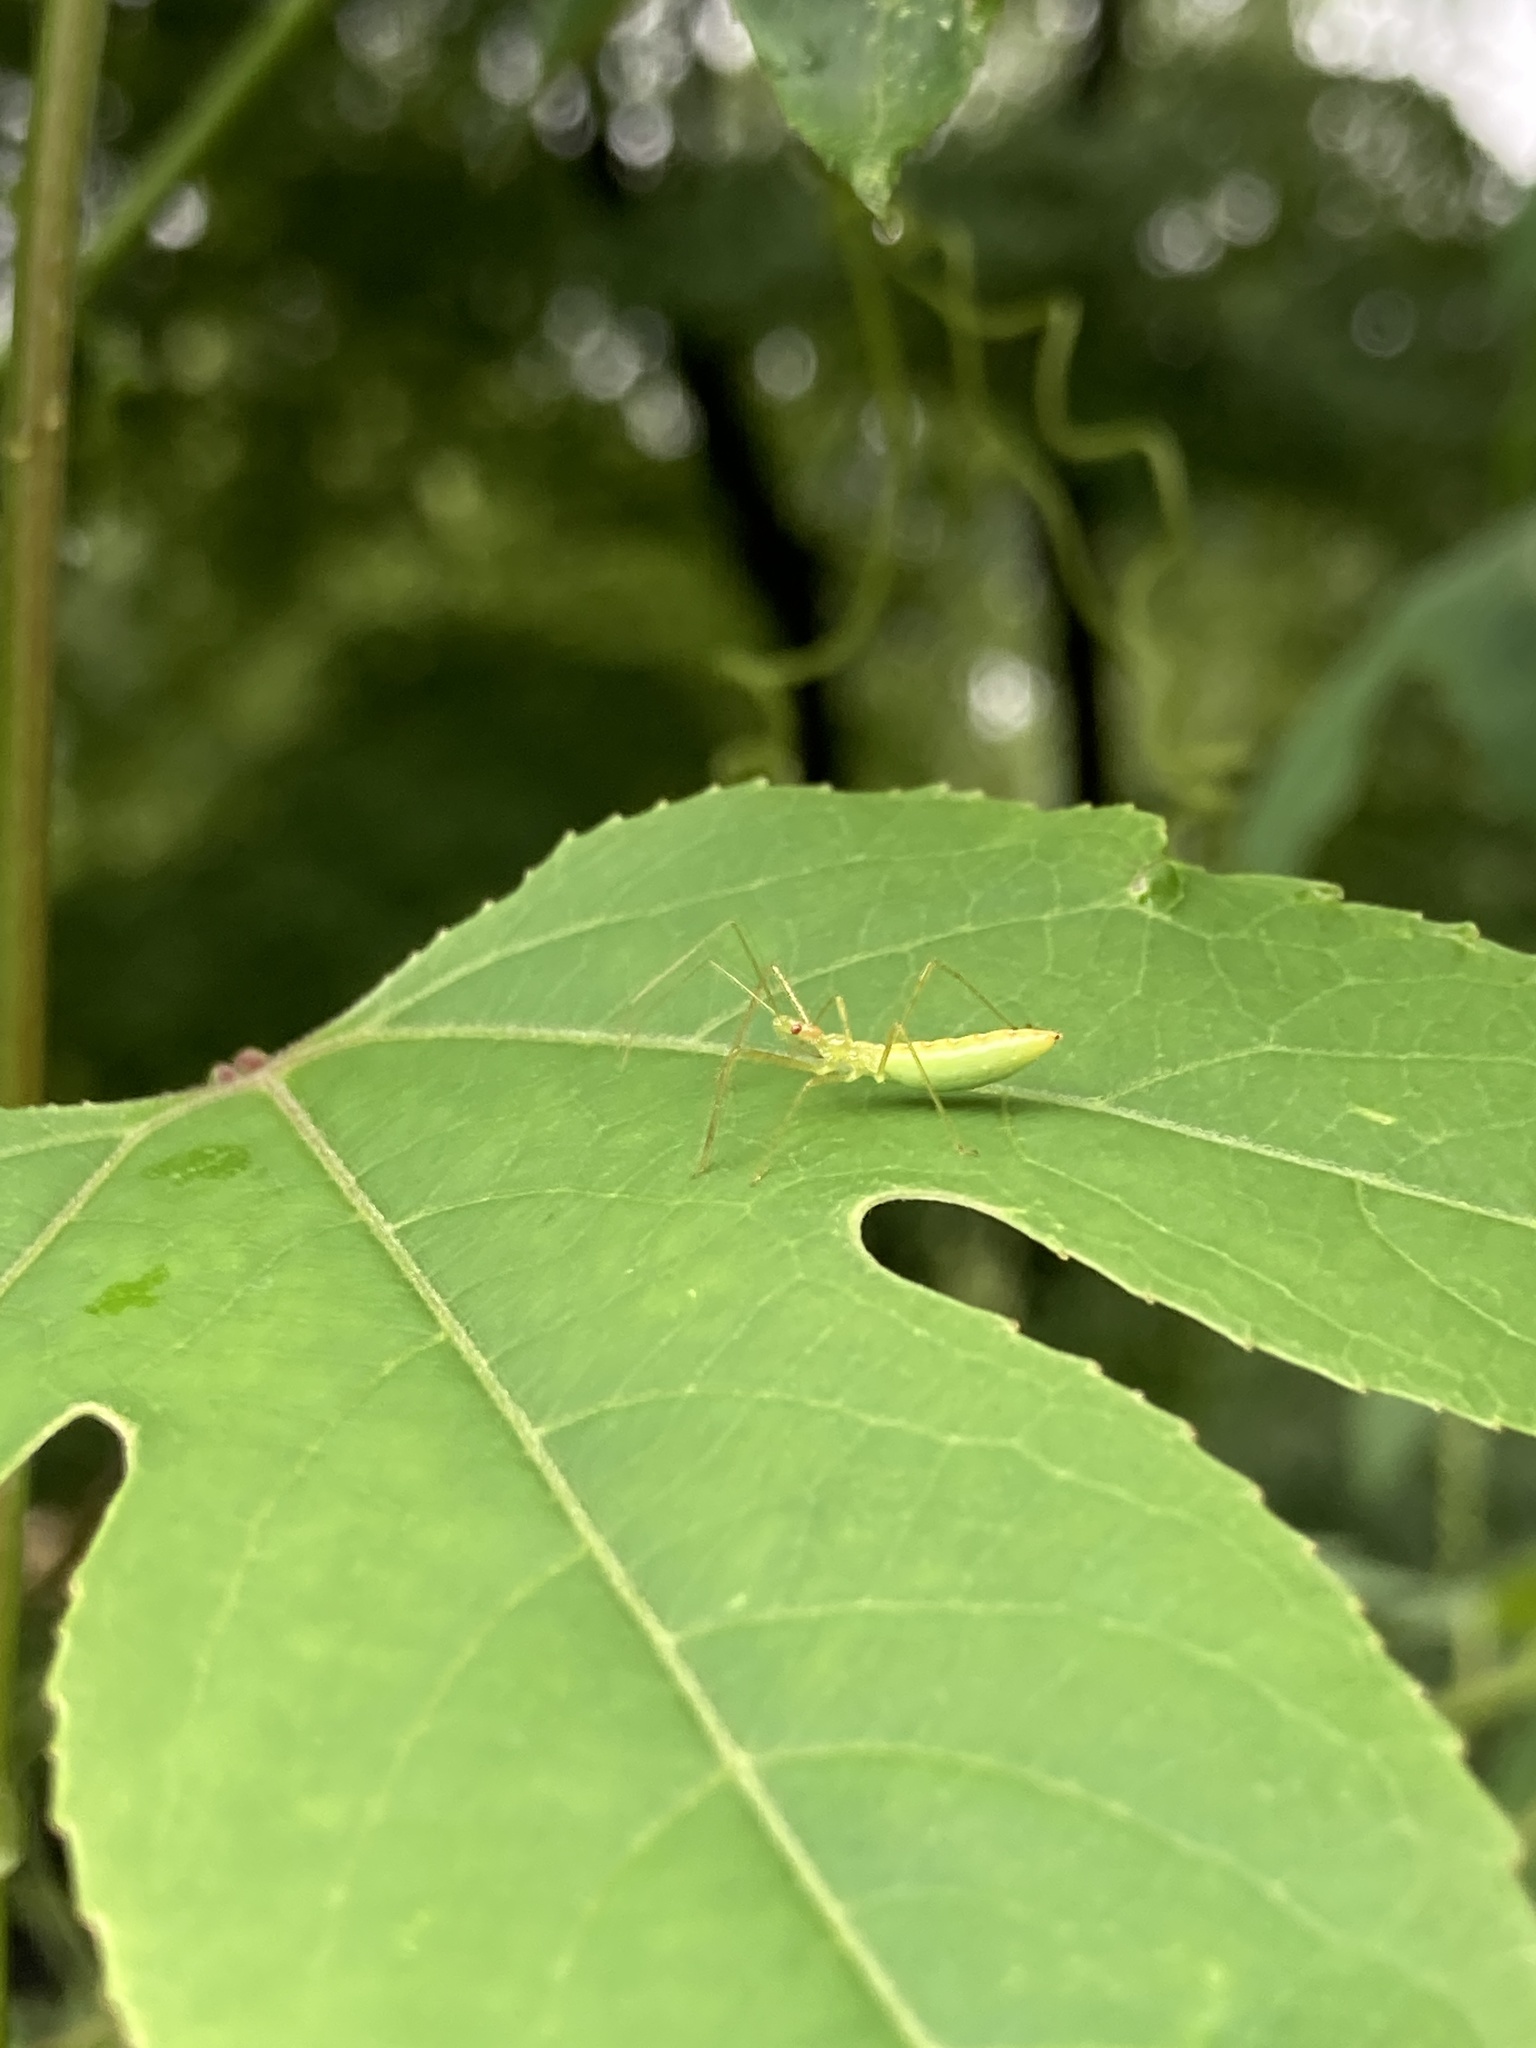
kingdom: Animalia
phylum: Arthropoda
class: Insecta
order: Hemiptera
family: Reduviidae
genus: Zelus
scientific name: Zelus luridus
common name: Pale green assassin bug
